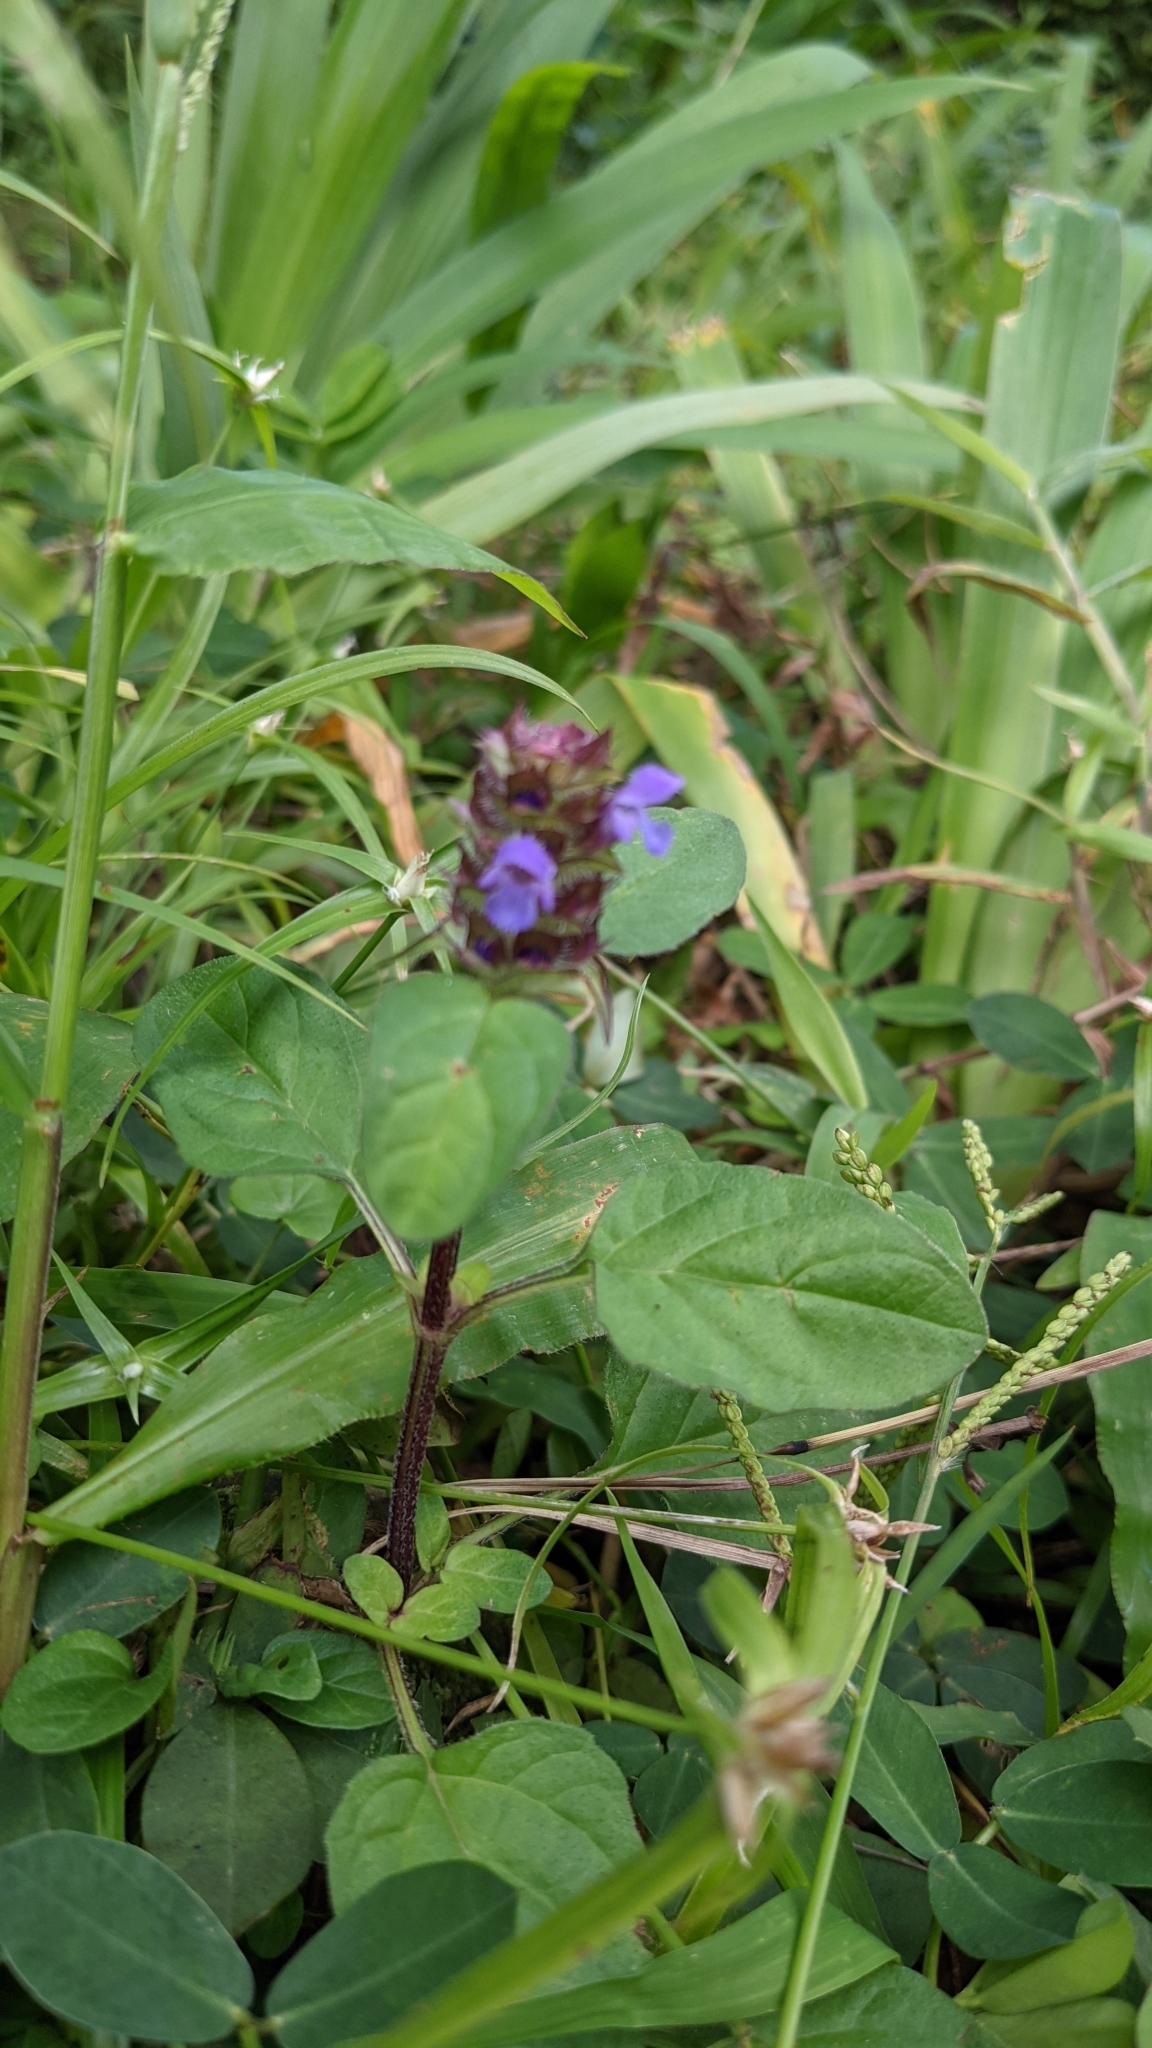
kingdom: Plantae
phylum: Tracheophyta
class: Magnoliopsida
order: Lamiales
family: Lamiaceae
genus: Prunella
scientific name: Prunella vulgaris
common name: Heal-all
